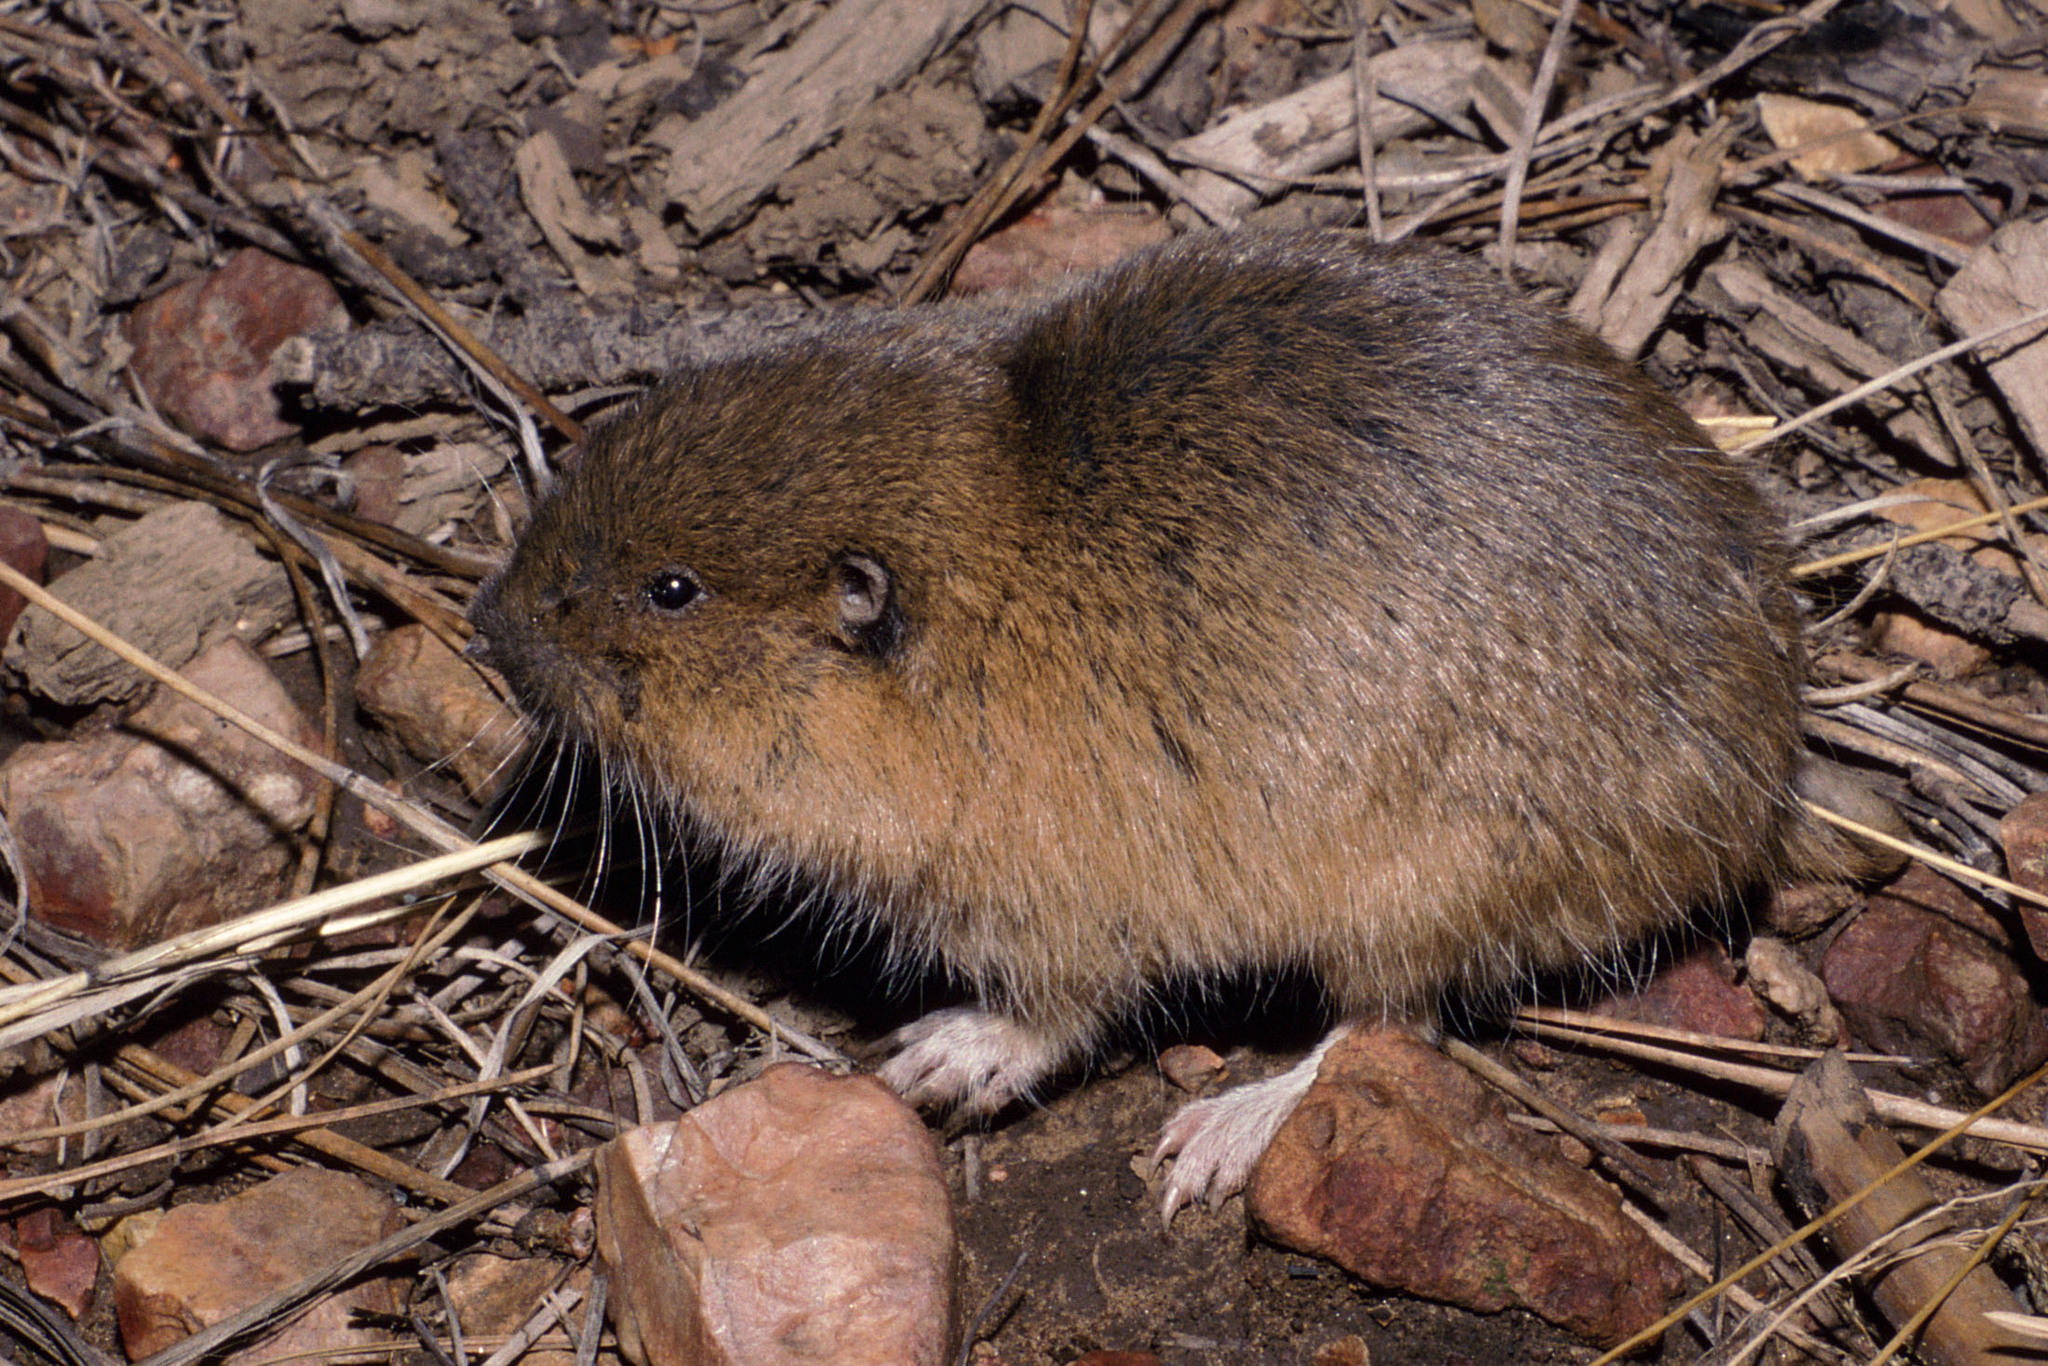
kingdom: Animalia
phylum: Chordata
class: Mammalia
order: Rodentia
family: Geomyidae
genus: Thomomys
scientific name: Thomomys bottae
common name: Botta's pocket gopher
